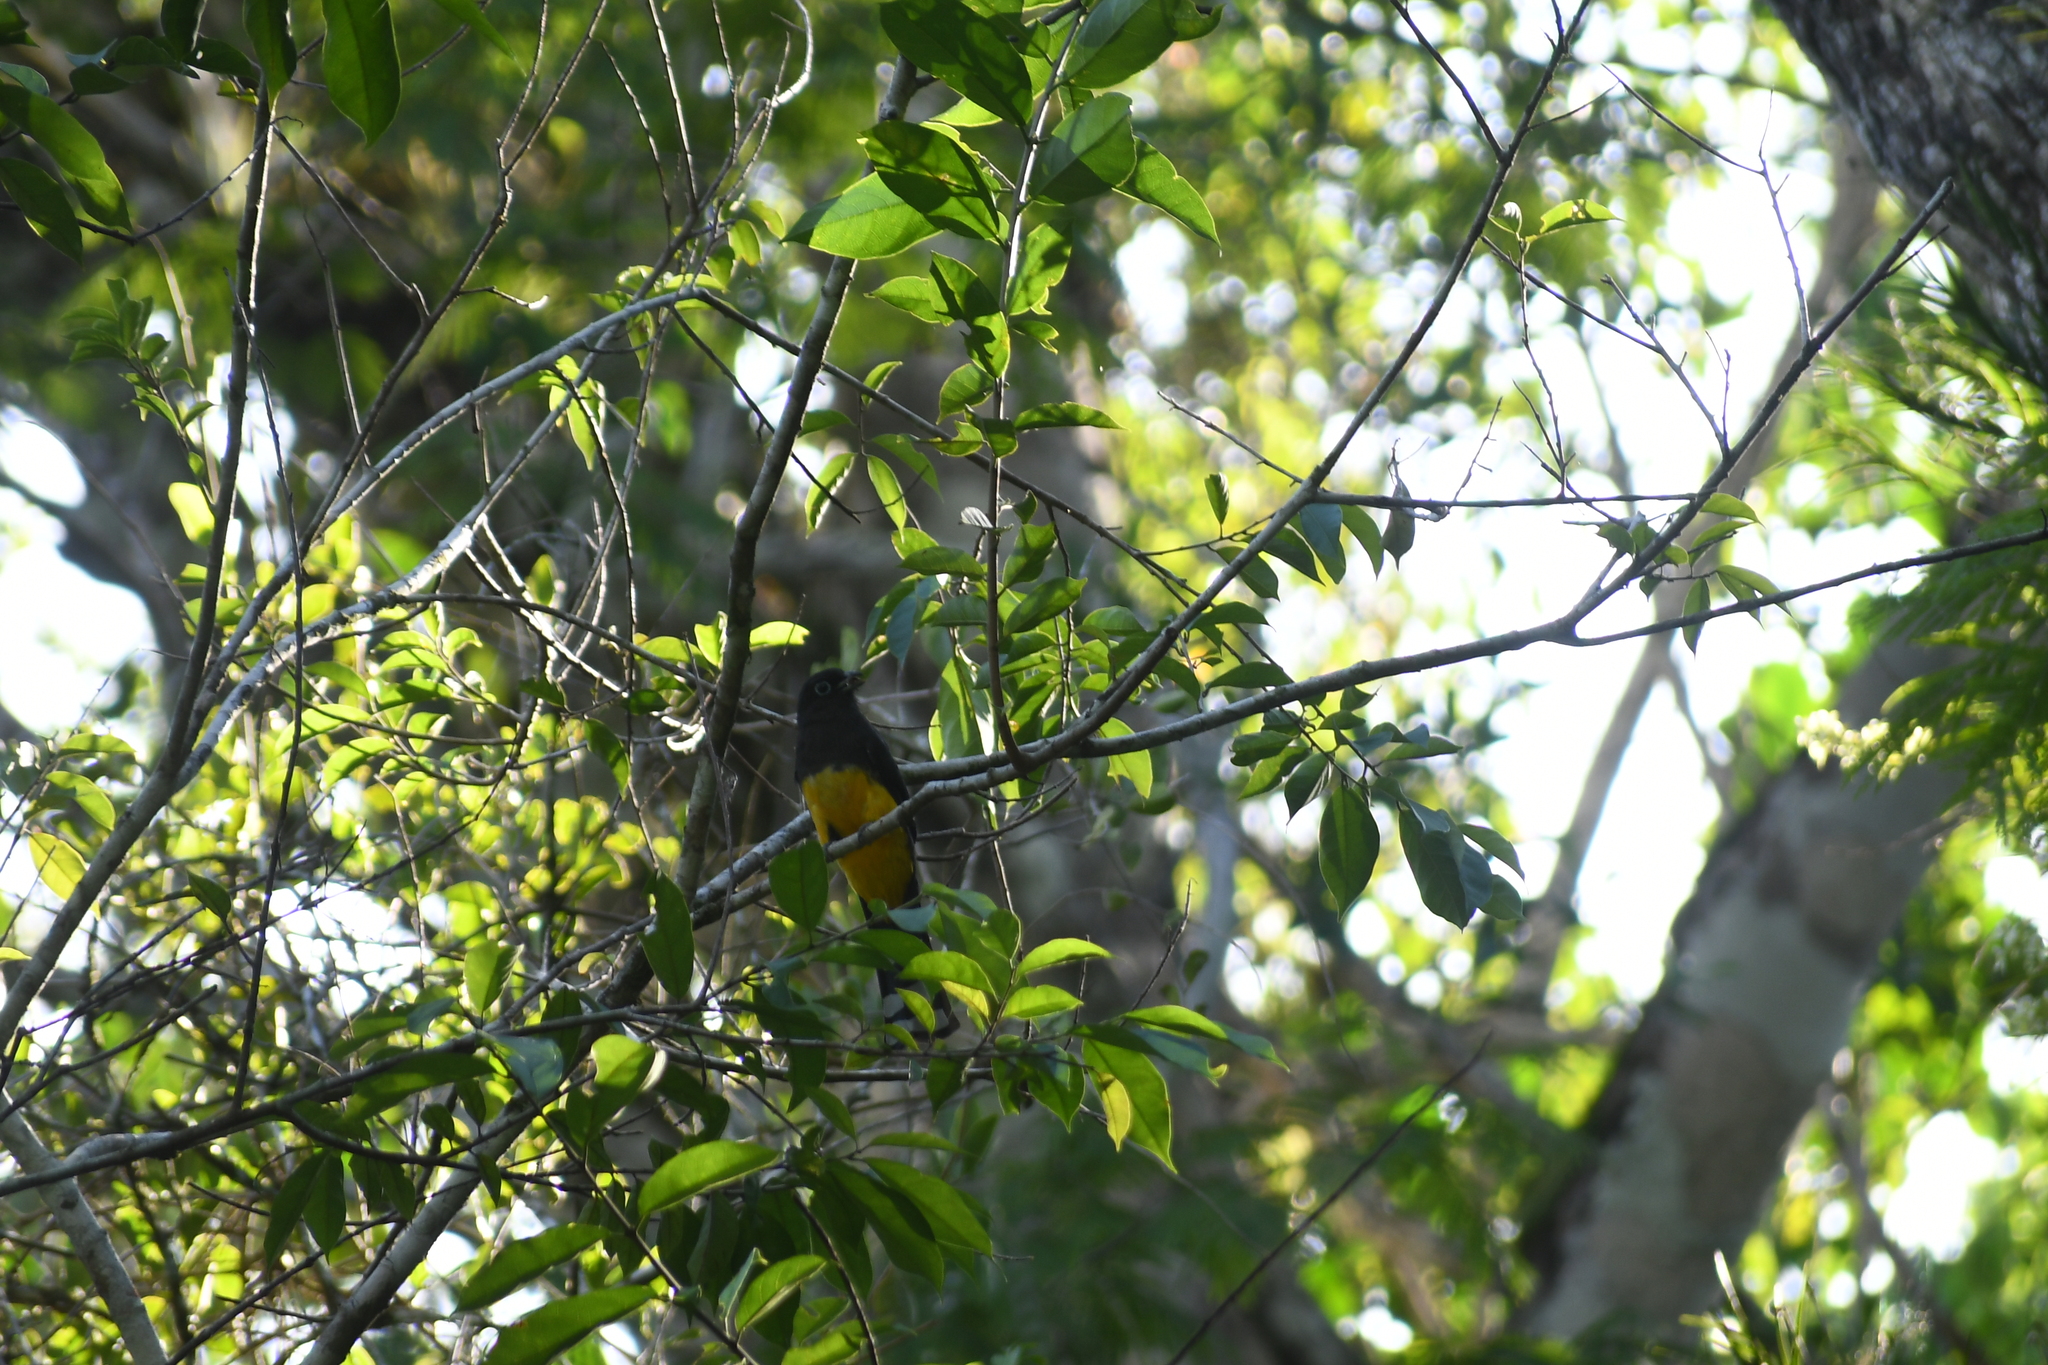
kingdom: Animalia
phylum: Chordata
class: Aves
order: Trogoniformes
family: Trogonidae
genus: Trogon
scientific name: Trogon melanocephalus
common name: Black-headed trogon
